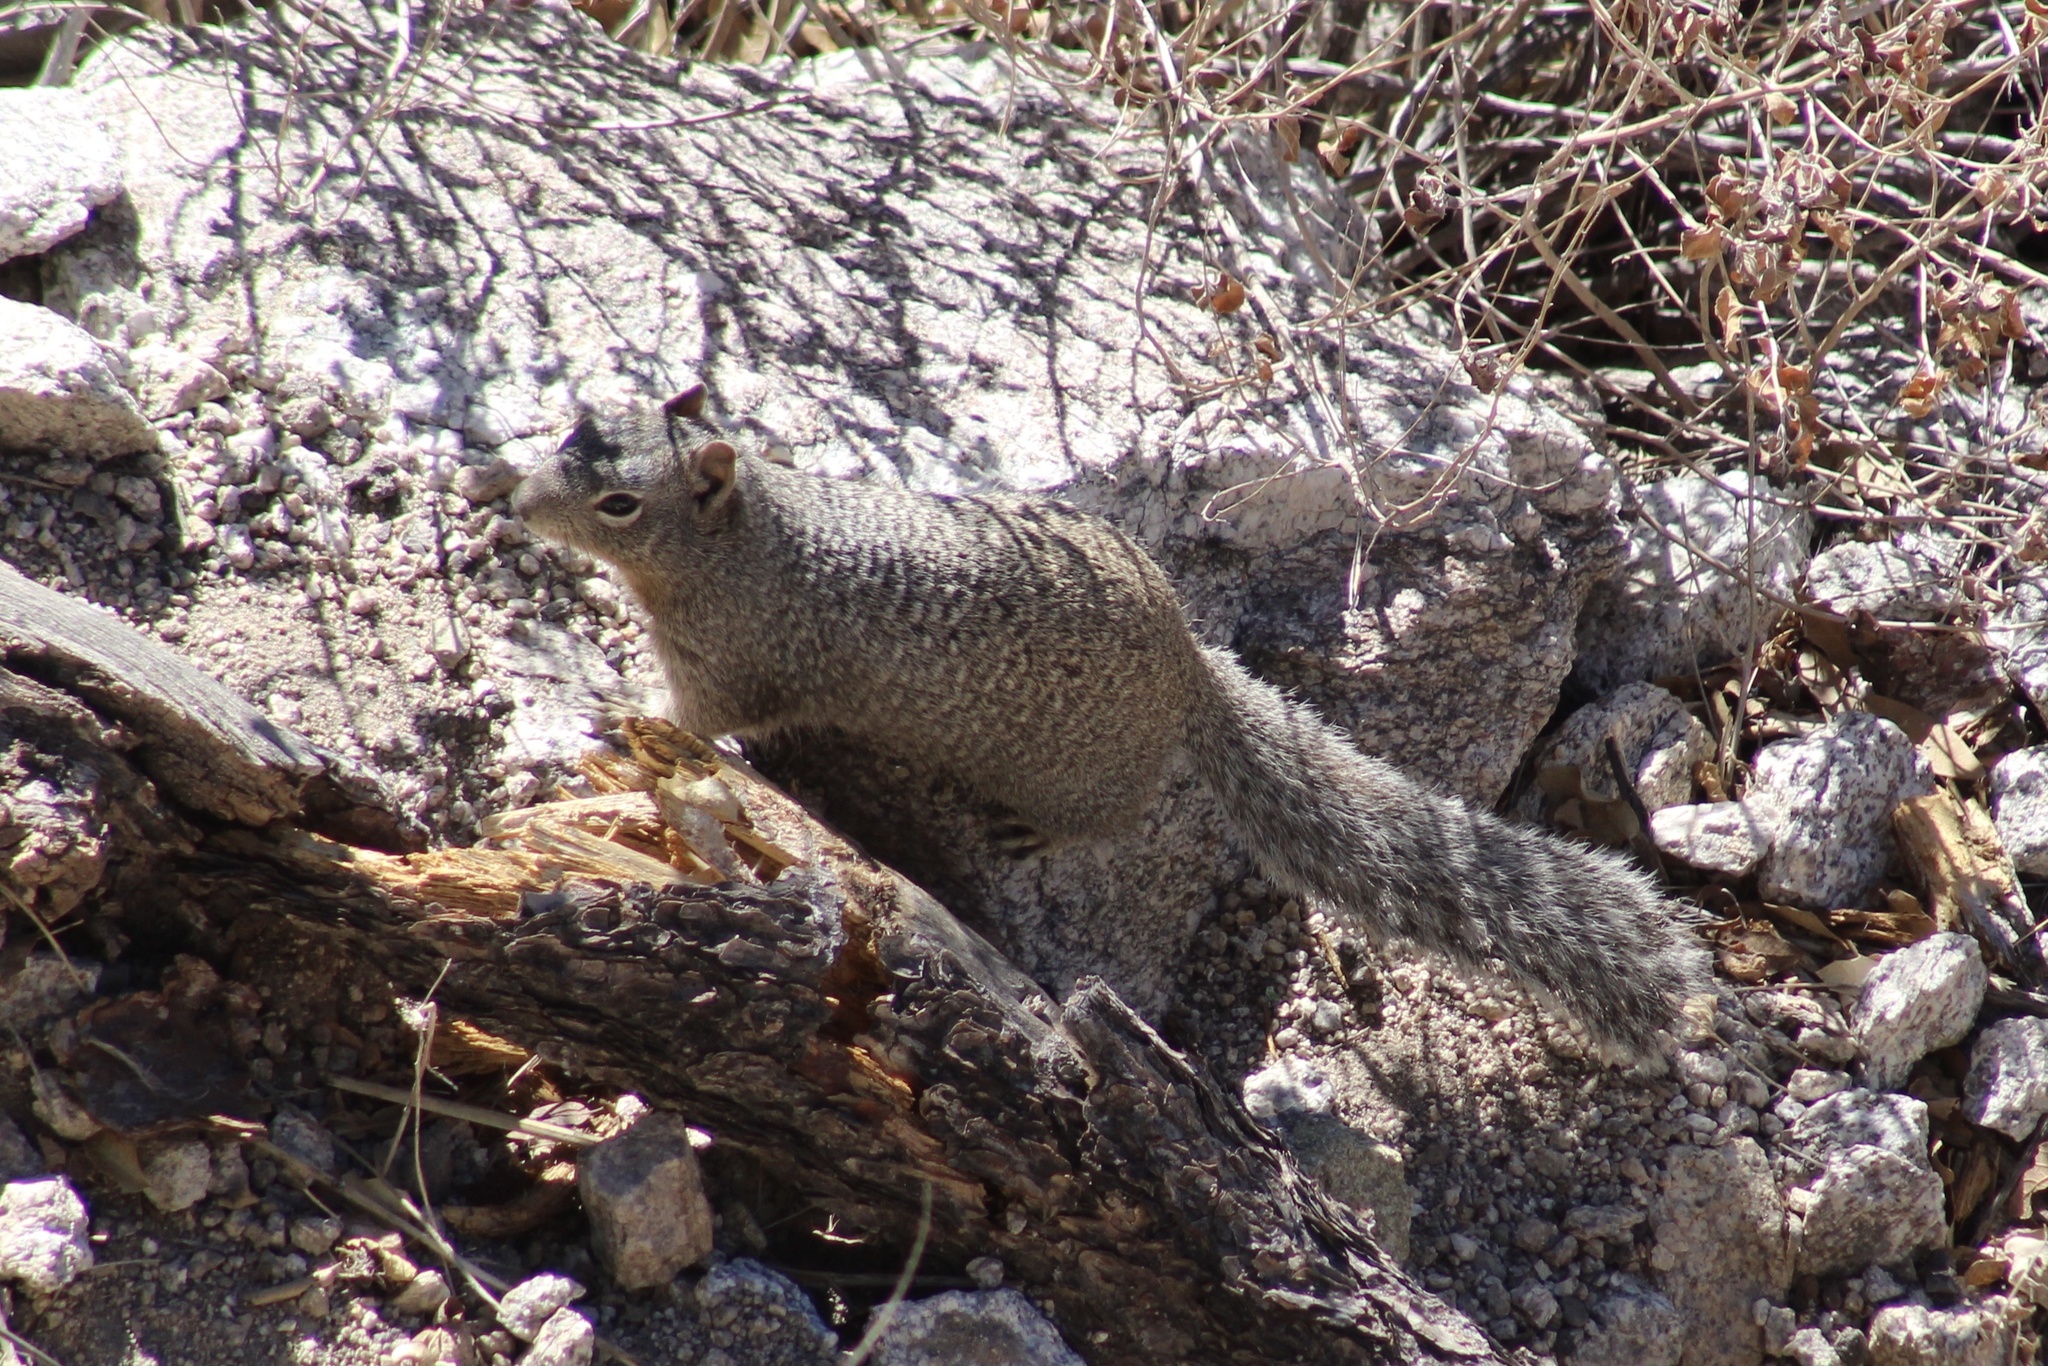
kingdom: Animalia
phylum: Chordata
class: Mammalia
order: Rodentia
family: Sciuridae
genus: Otospermophilus
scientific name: Otospermophilus variegatus
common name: Rock squirrel
